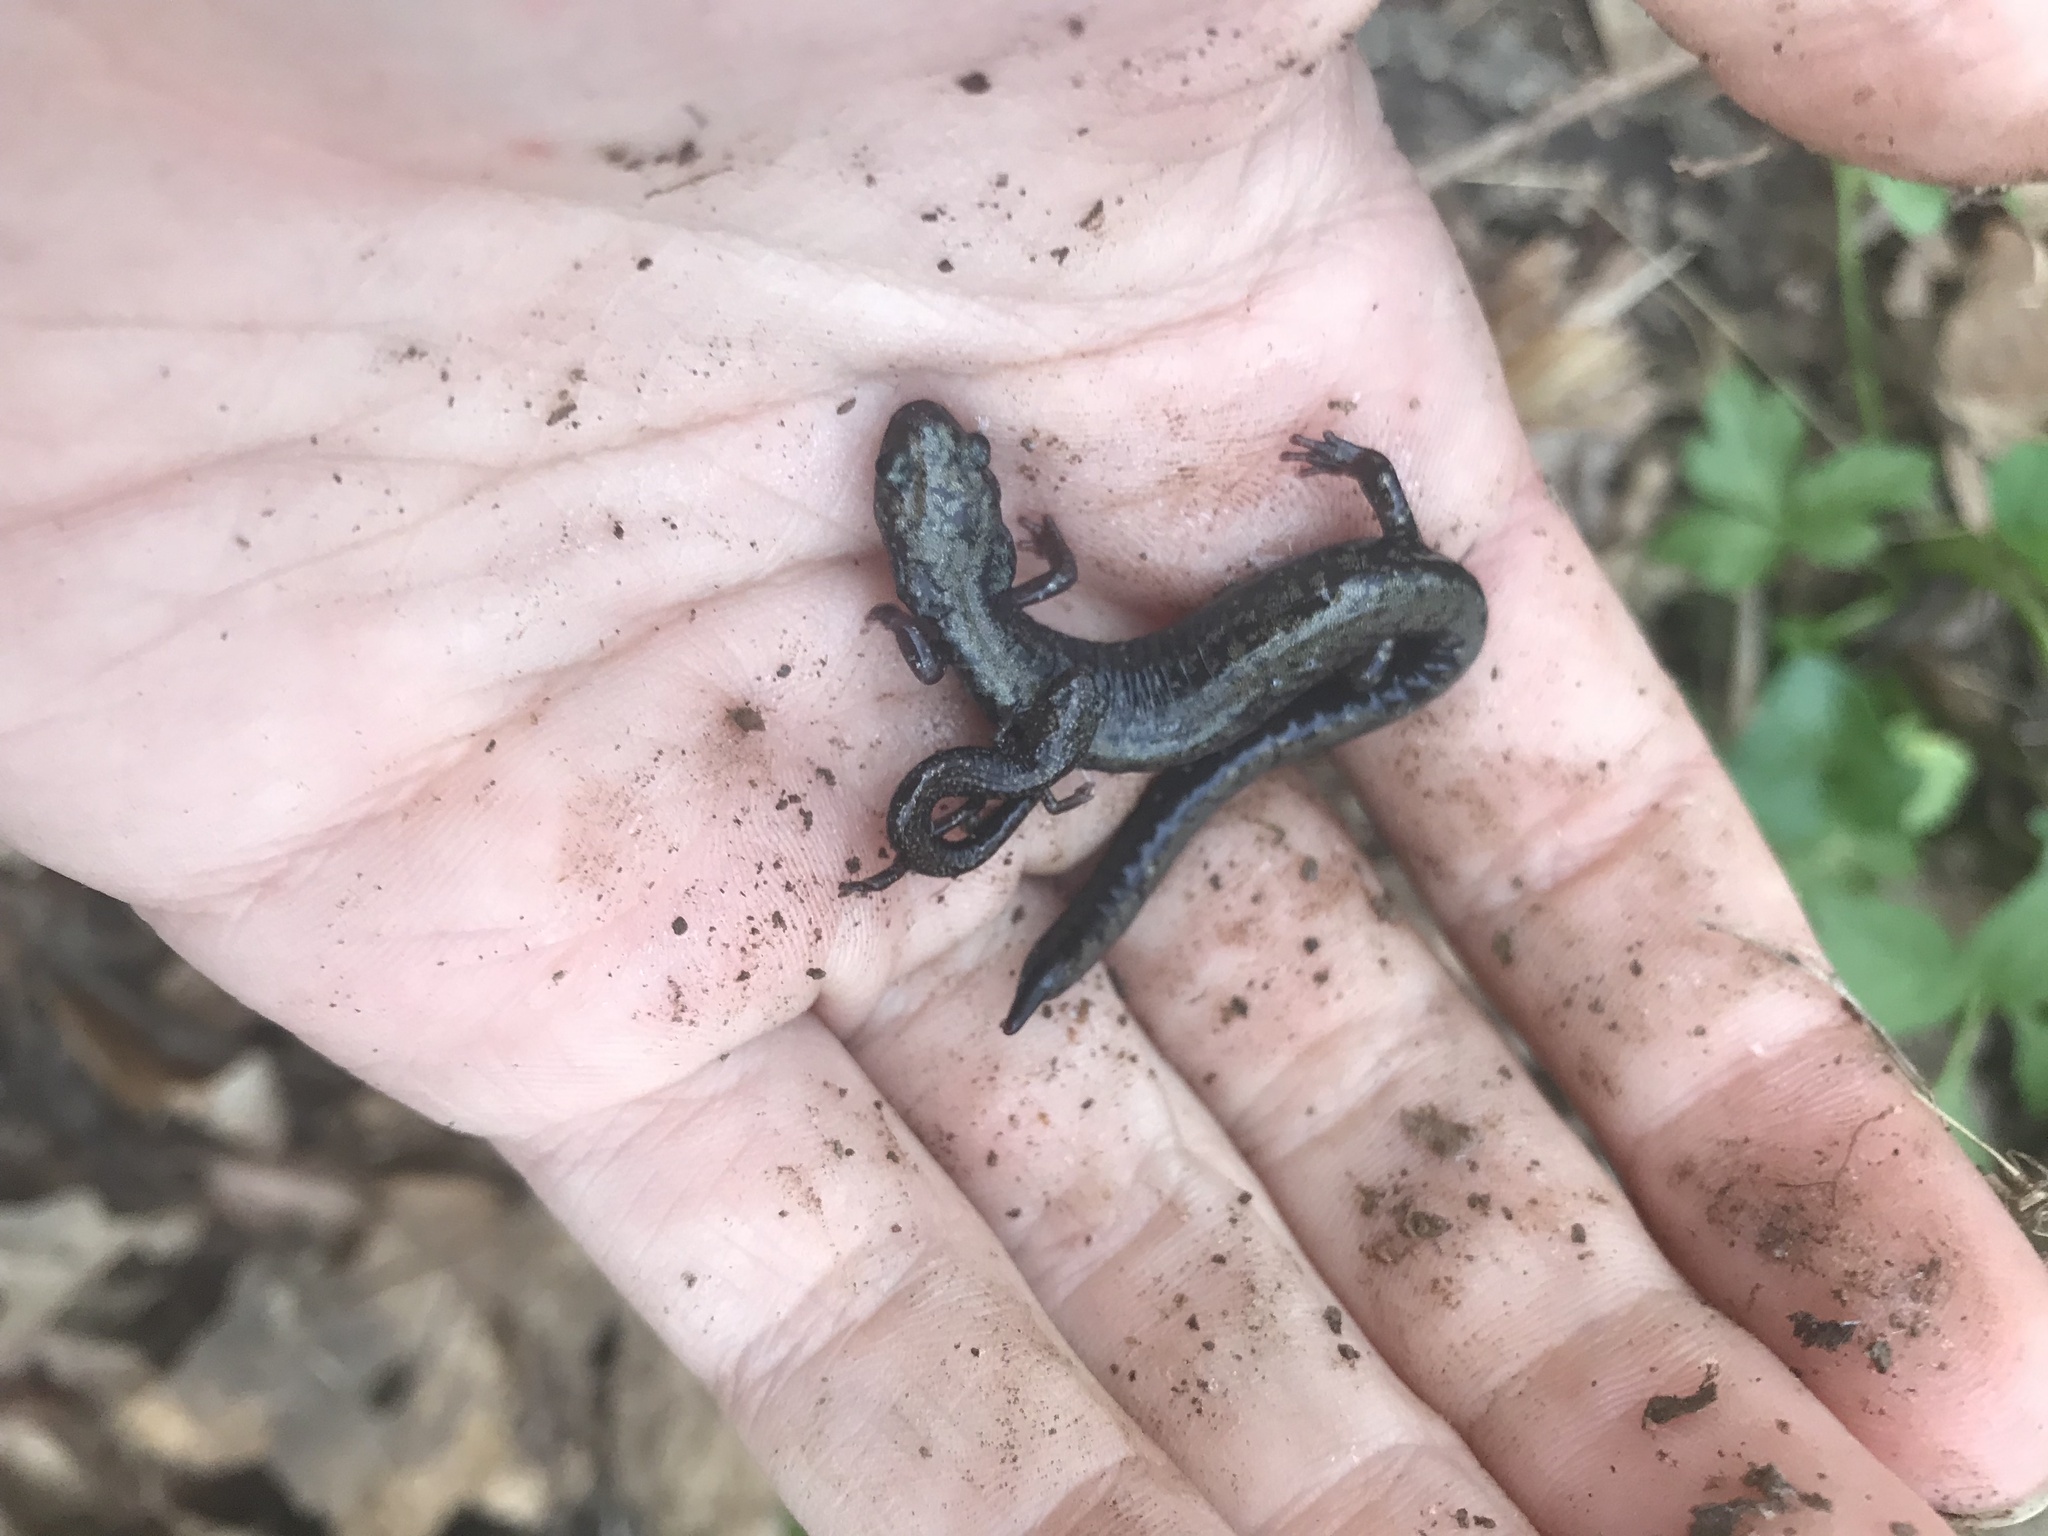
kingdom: Animalia
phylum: Chordata
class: Amphibia
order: Caudata
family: Plethodontidae
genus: Plethodon
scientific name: Plethodon hubrichti
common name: Peaks of otter salamander
